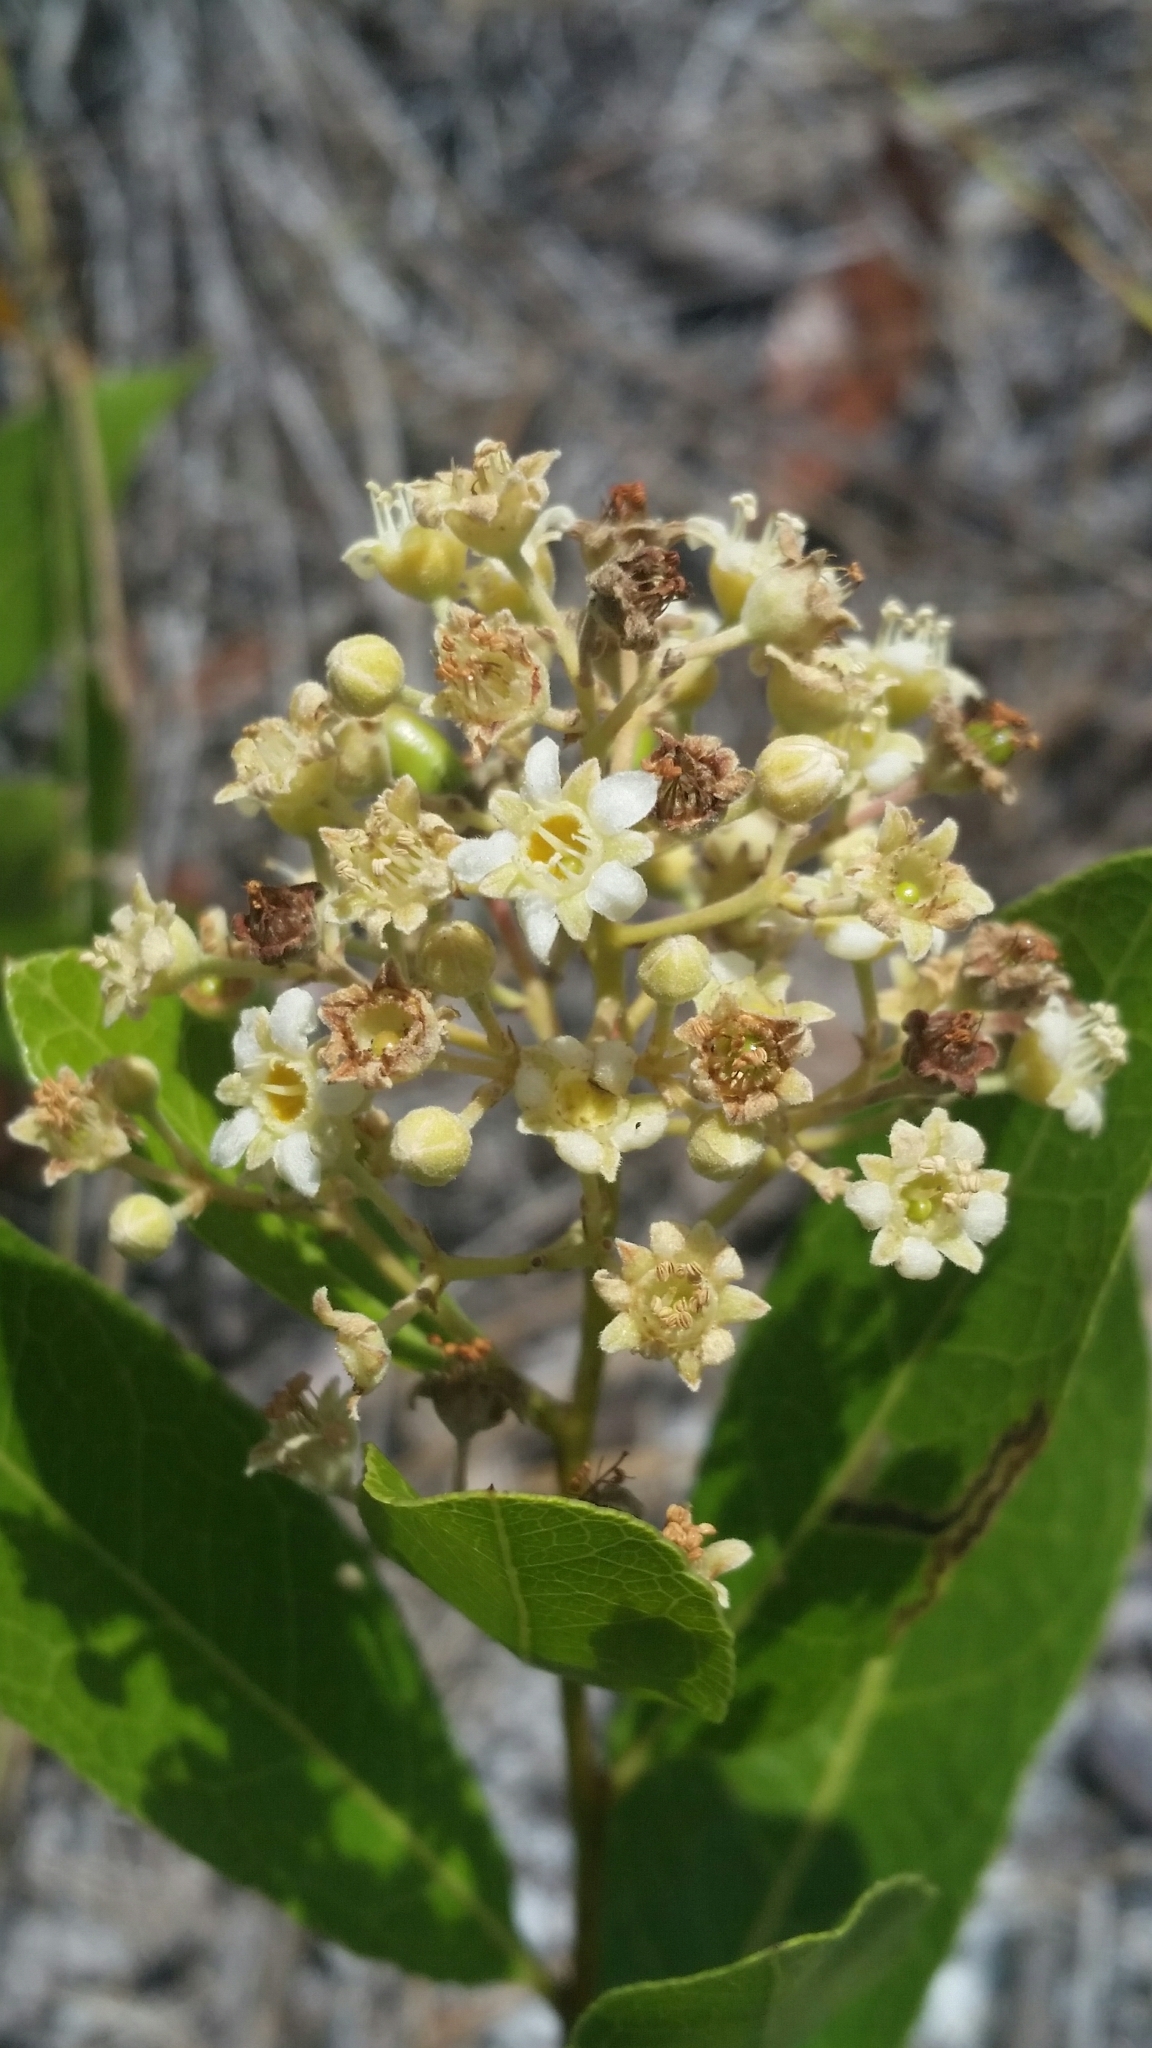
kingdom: Plantae
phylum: Tracheophyta
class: Magnoliopsida
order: Malpighiales
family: Chrysobalanaceae
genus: Geobalanus
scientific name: Geobalanus oblongifolius
